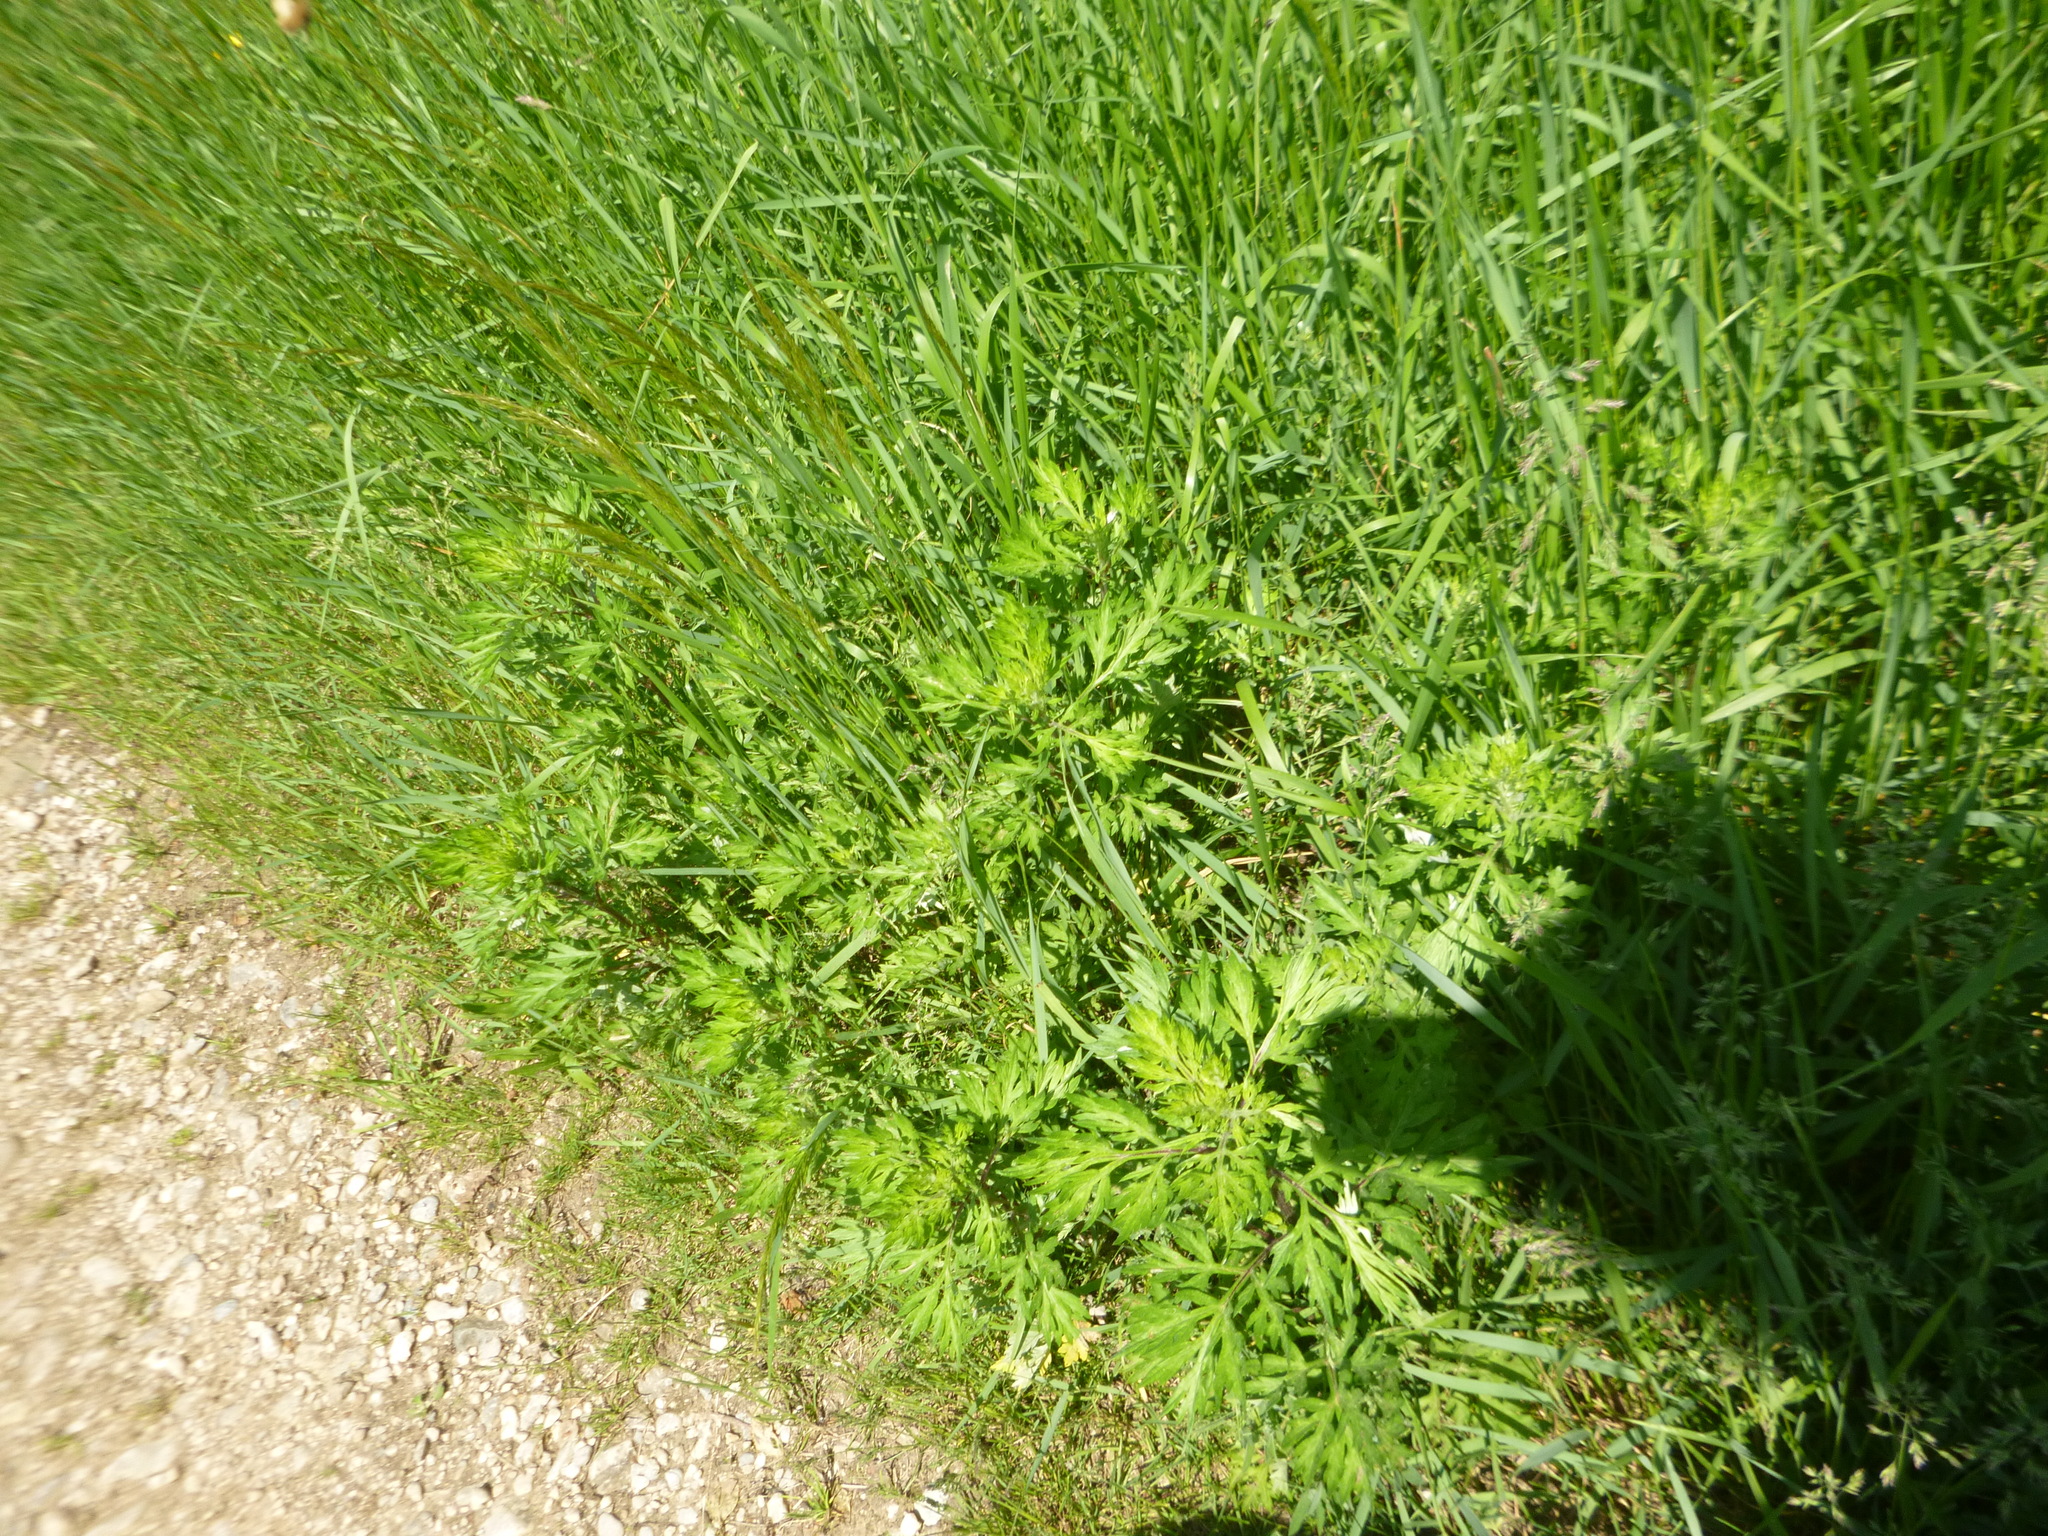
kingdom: Plantae
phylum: Tracheophyta
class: Magnoliopsida
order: Asterales
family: Asteraceae
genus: Artemisia
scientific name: Artemisia vulgaris
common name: Mugwort
